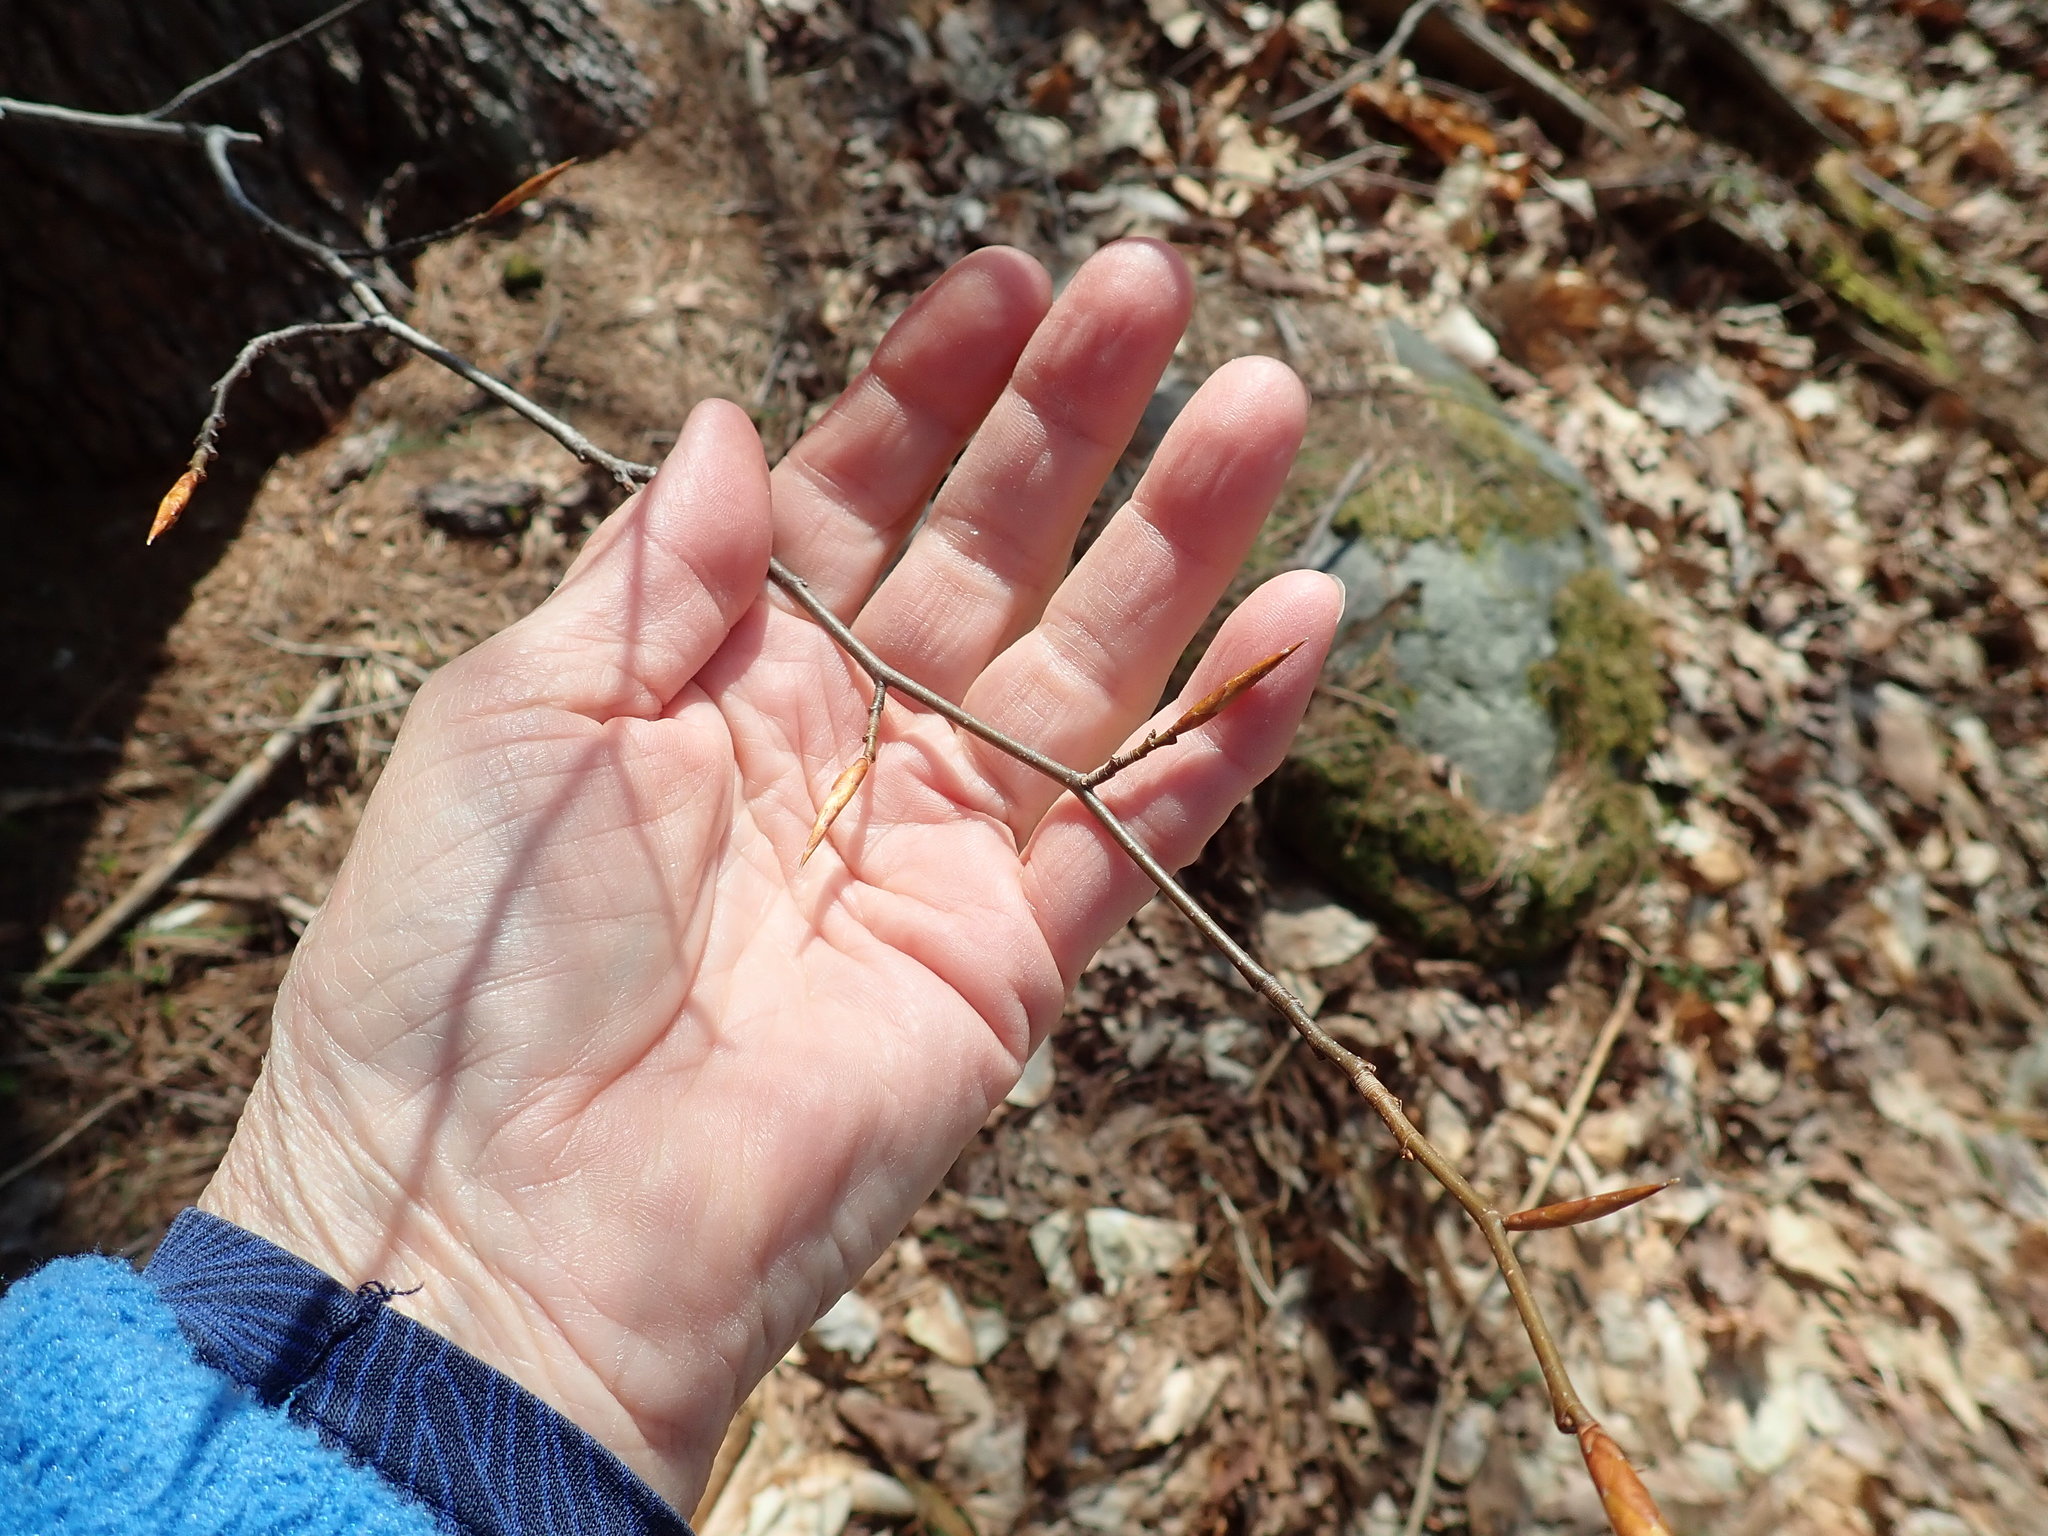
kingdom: Plantae
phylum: Tracheophyta
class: Magnoliopsida
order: Fagales
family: Fagaceae
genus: Fagus
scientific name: Fagus grandifolia
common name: American beech
